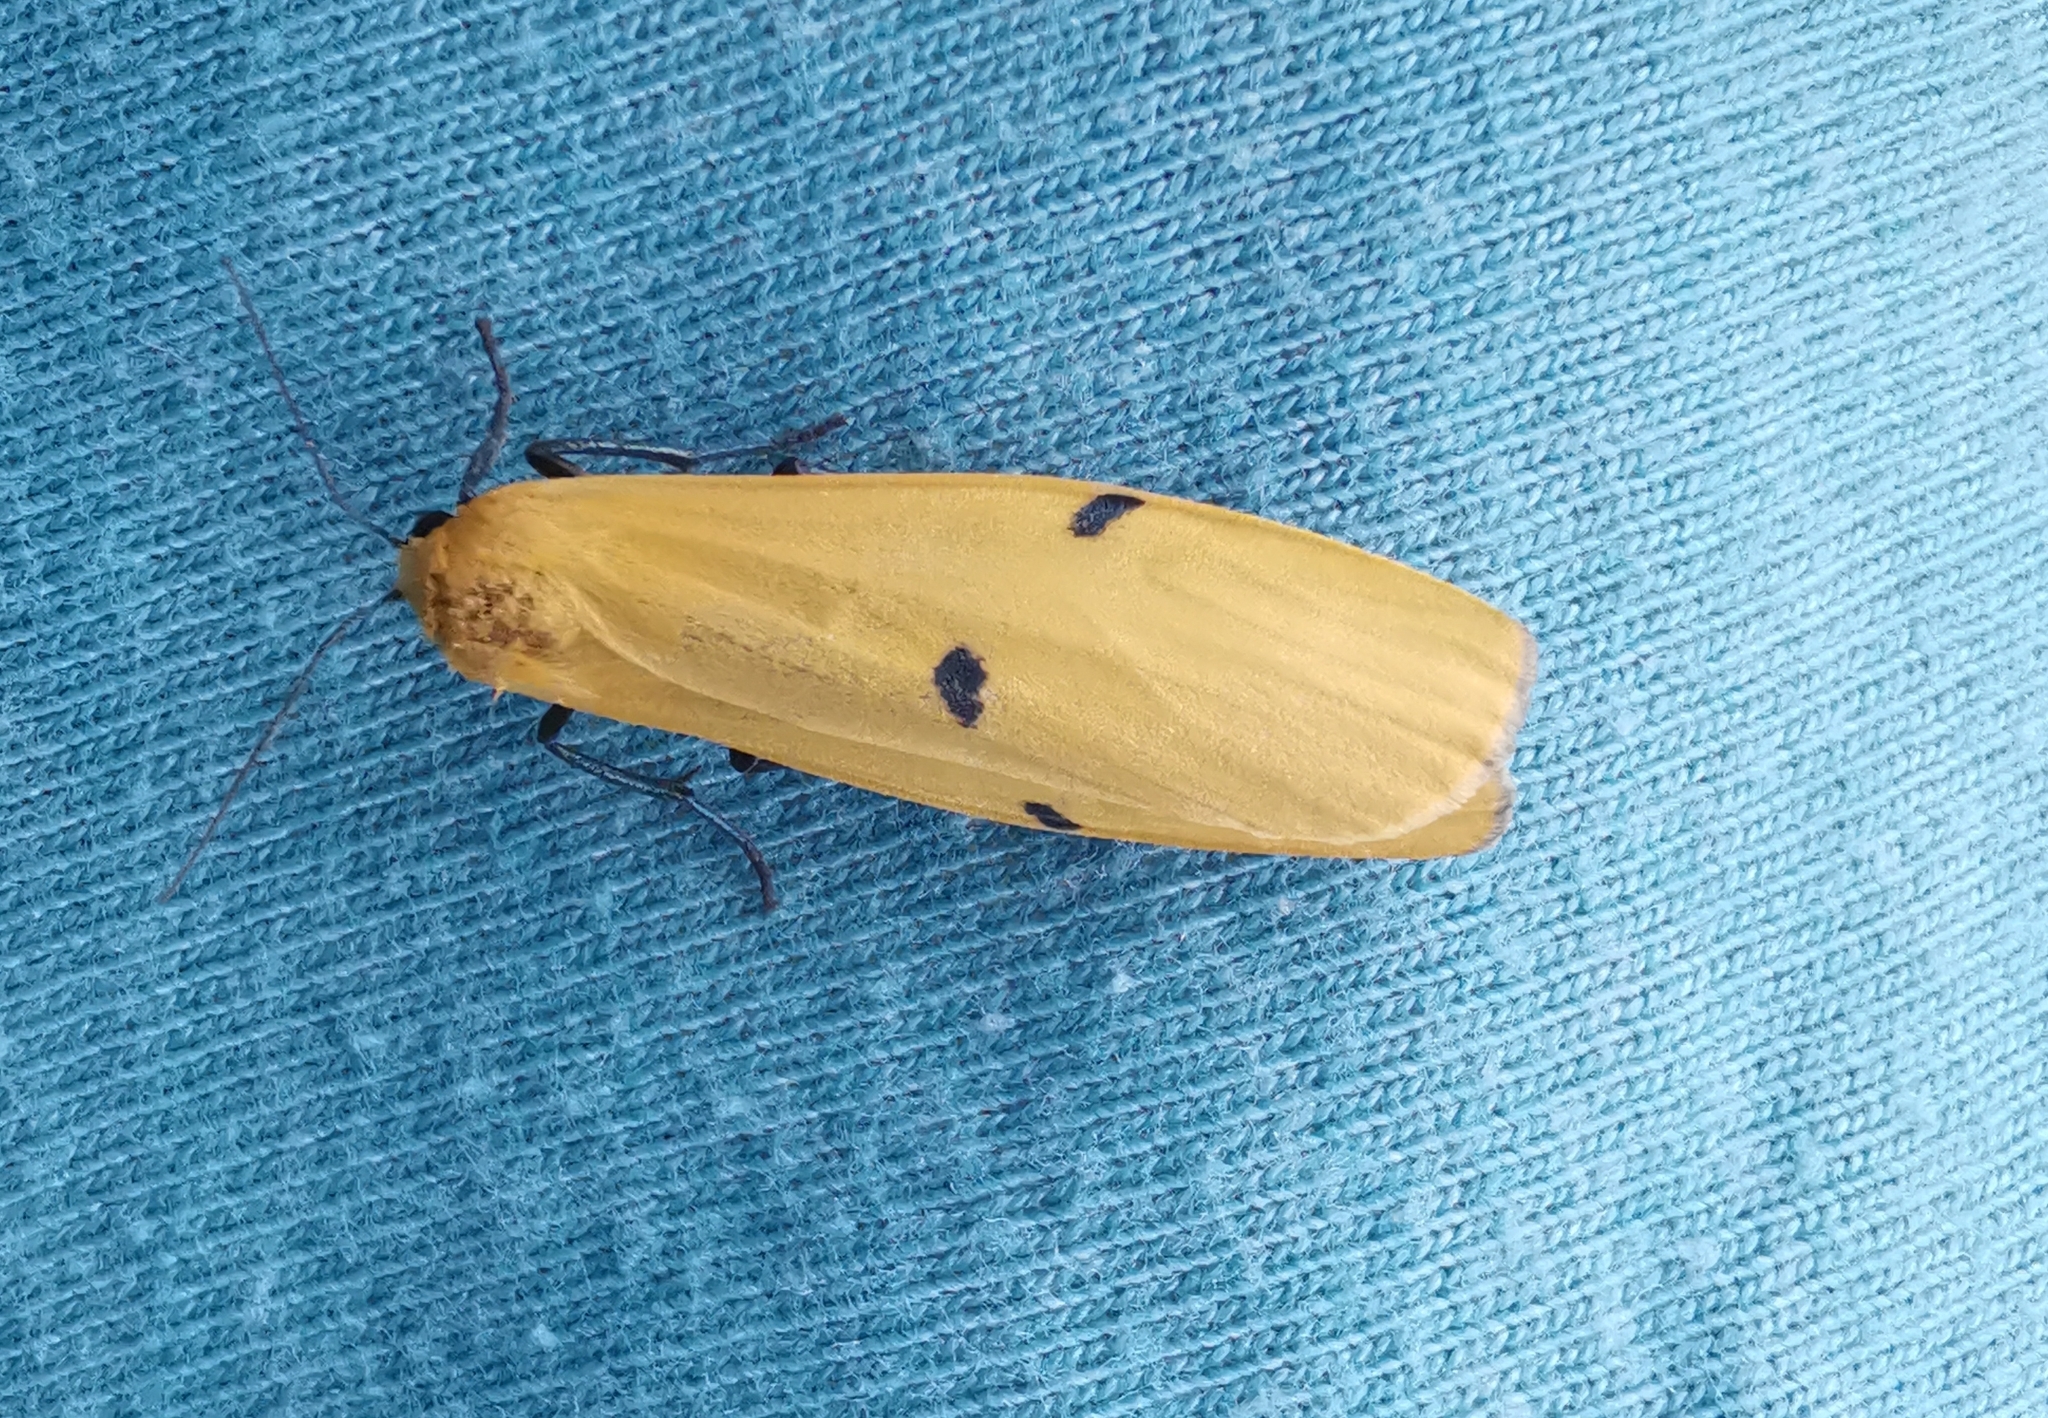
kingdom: Animalia
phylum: Arthropoda
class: Insecta
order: Lepidoptera
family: Erebidae
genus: Lithosia
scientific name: Lithosia quadra
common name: Four-spotted footman
